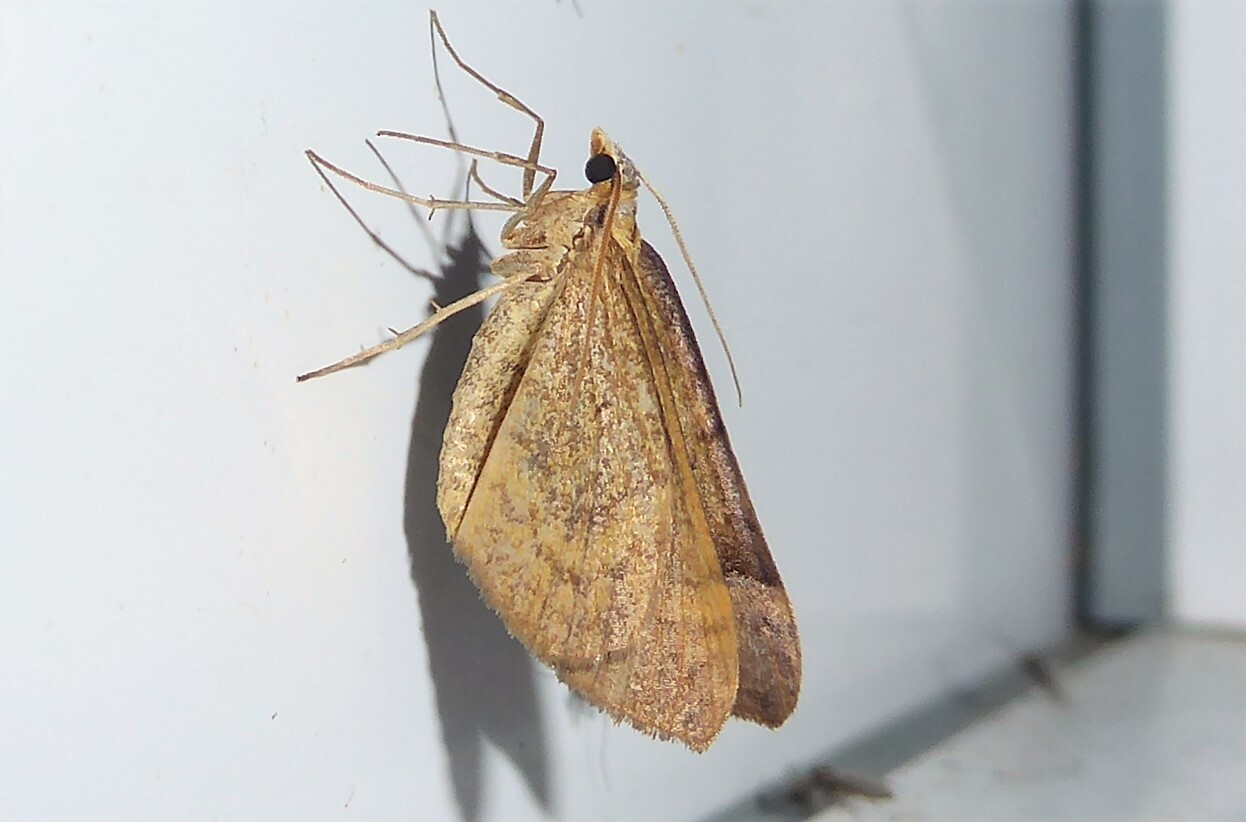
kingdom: Animalia
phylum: Arthropoda
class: Insecta
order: Lepidoptera
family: Geometridae
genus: Anachloris
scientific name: Anachloris subochraria
